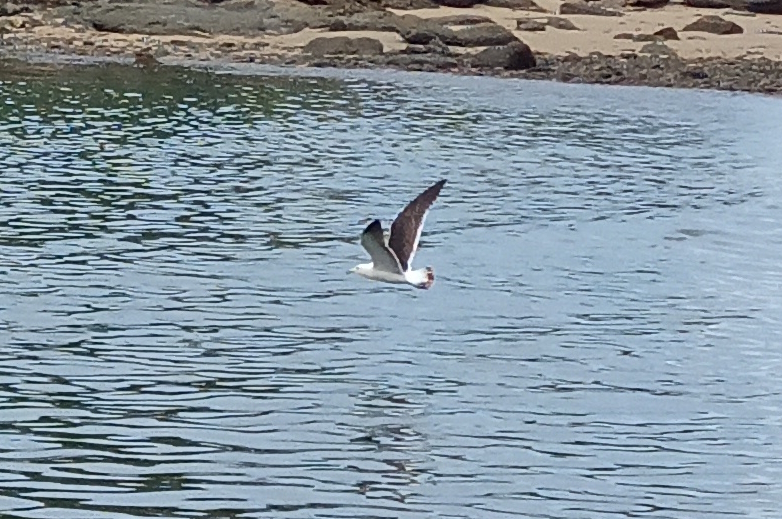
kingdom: Animalia
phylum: Chordata
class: Aves
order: Charadriiformes
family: Laridae
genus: Larus
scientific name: Larus dominicanus
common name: Kelp gull
